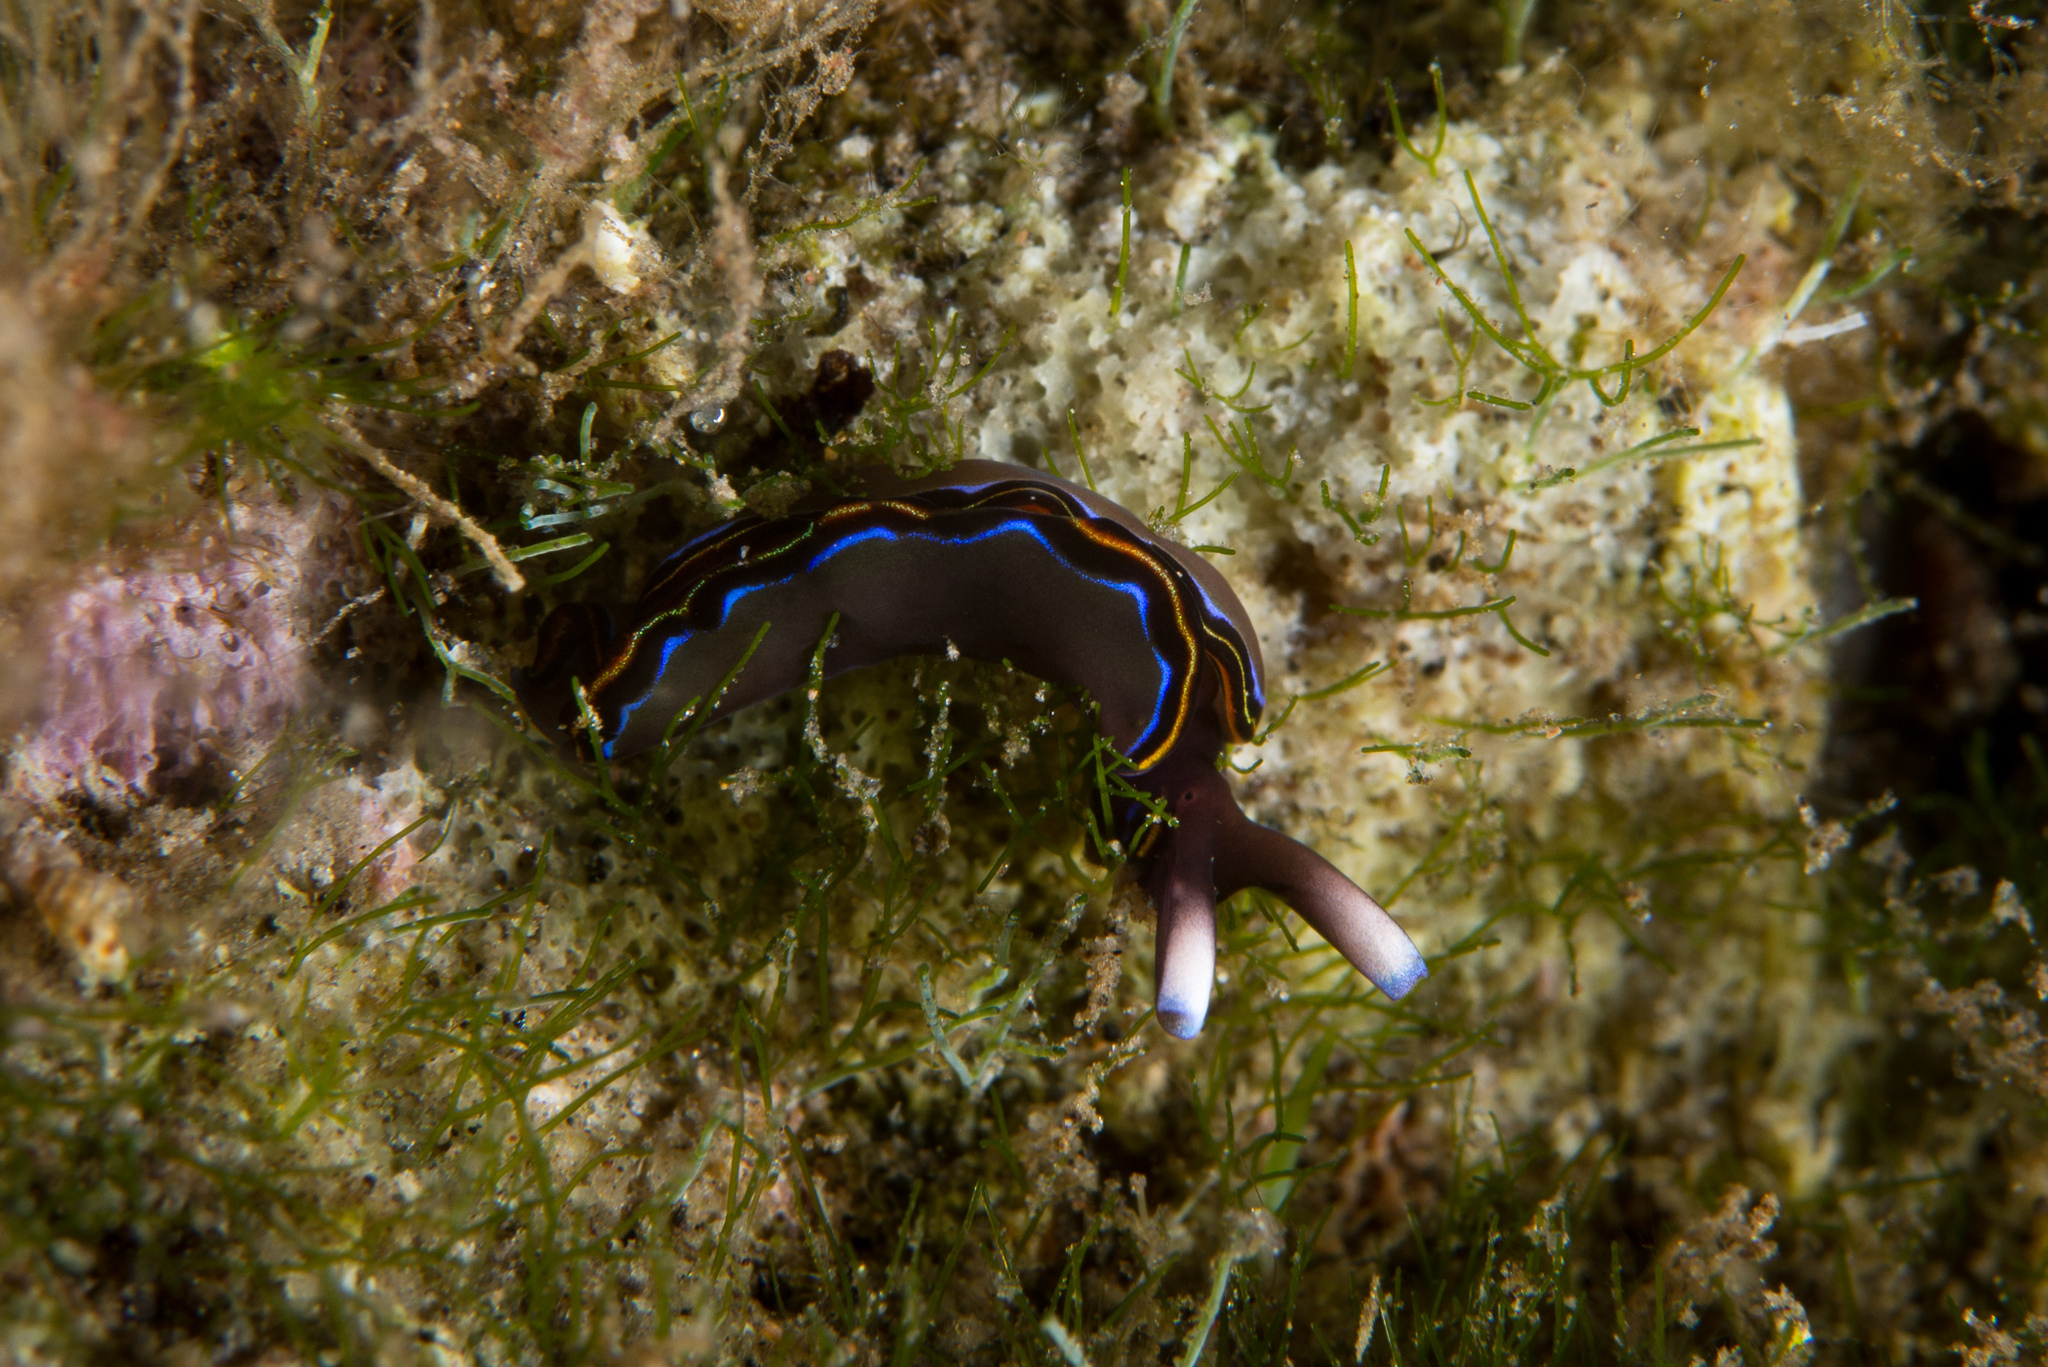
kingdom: Animalia
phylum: Mollusca
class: Gastropoda
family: Plakobranchidae
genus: Thuridilla
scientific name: Thuridilla livida
